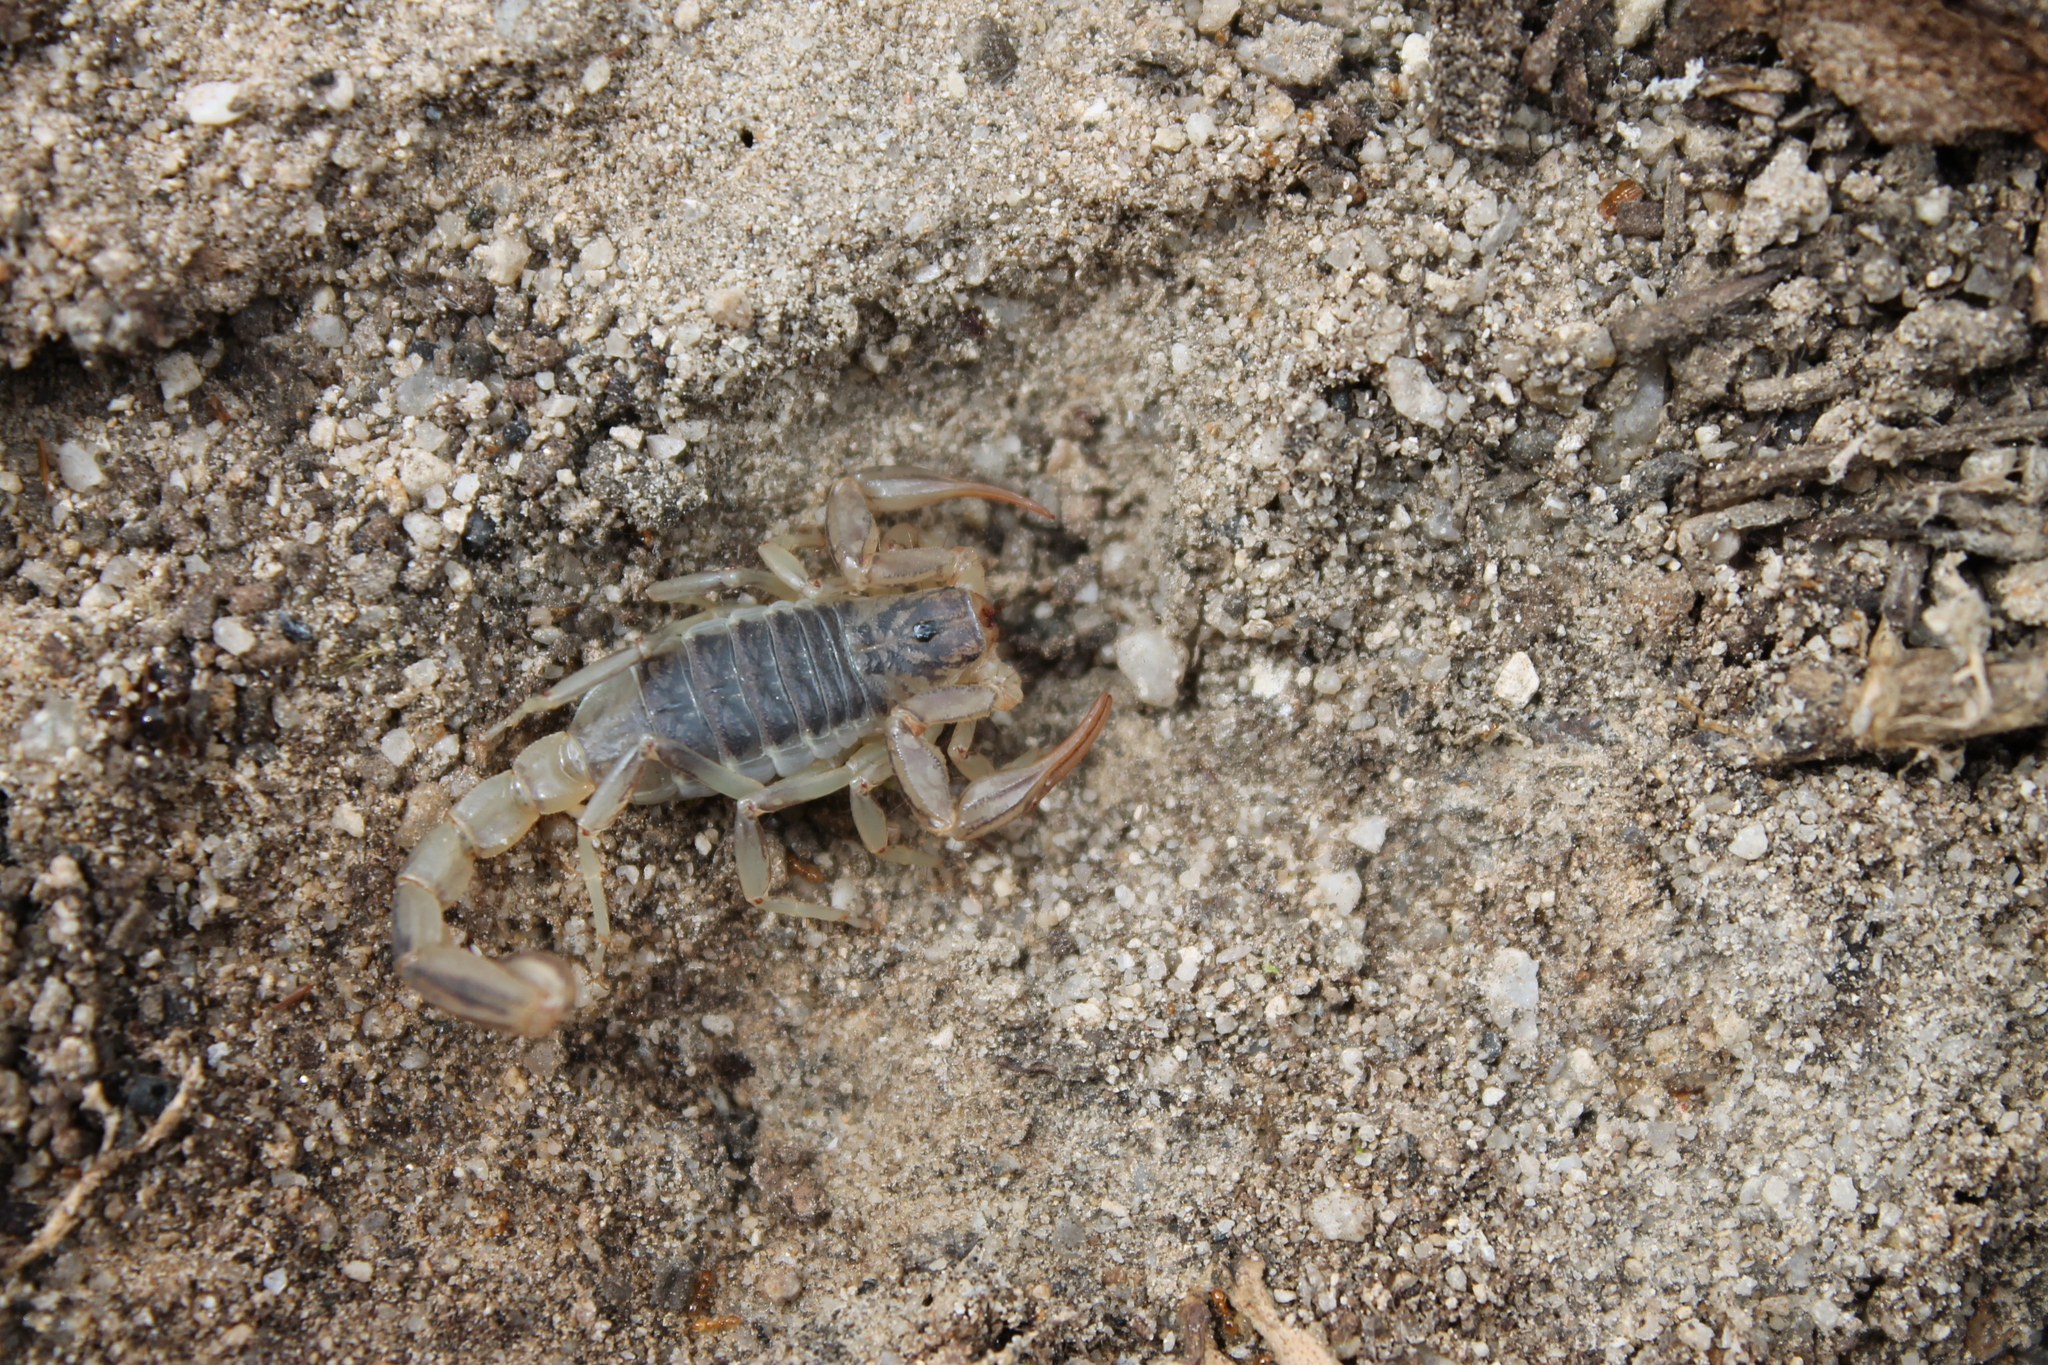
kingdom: Animalia
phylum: Arthropoda
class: Arachnida
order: Scorpiones
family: Vaejovidae
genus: Paruroctonus
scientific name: Paruroctonus silvestrii
